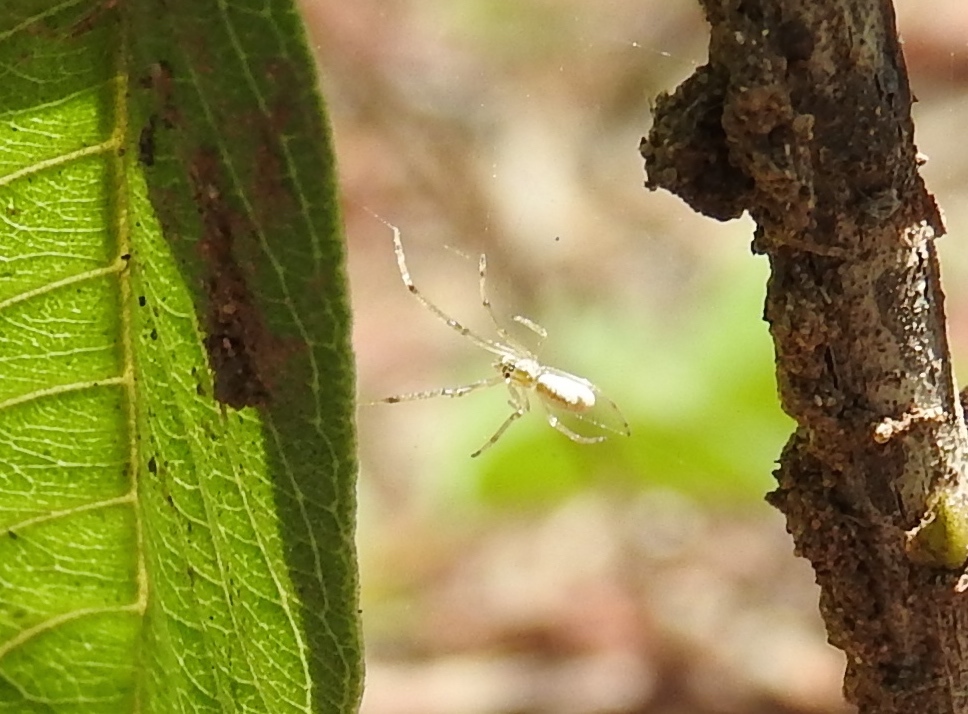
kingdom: Animalia
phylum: Arthropoda
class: Arachnida
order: Araneae
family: Tetragnathidae
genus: Tetragnatha
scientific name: Tetragnatha
